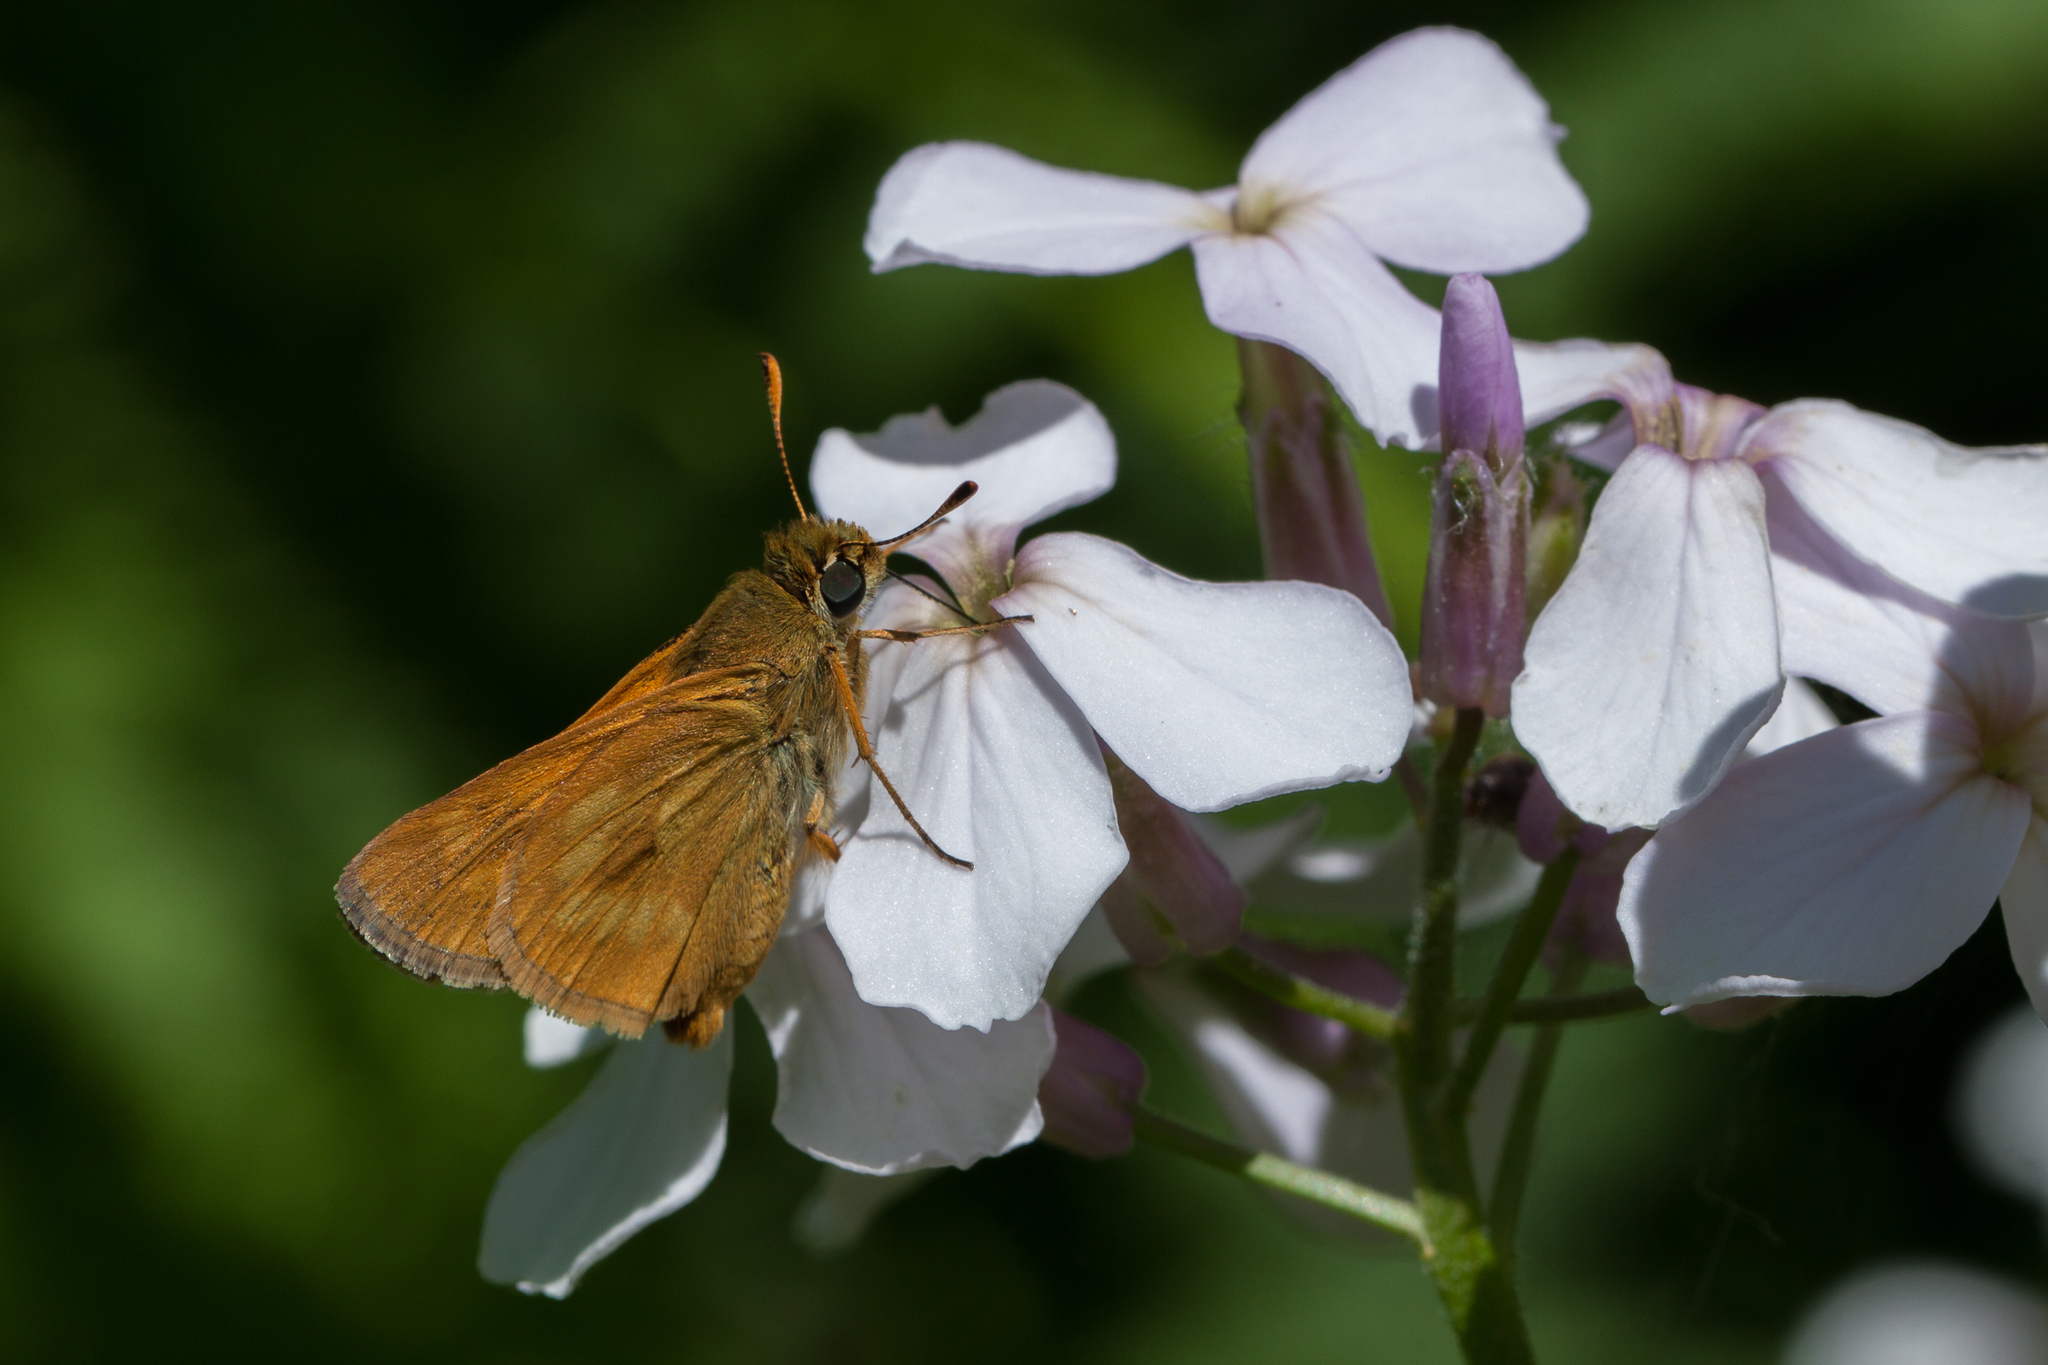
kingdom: Animalia
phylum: Arthropoda
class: Insecta
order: Lepidoptera
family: Hesperiidae
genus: Polites
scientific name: Polites mystic
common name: Long dash
